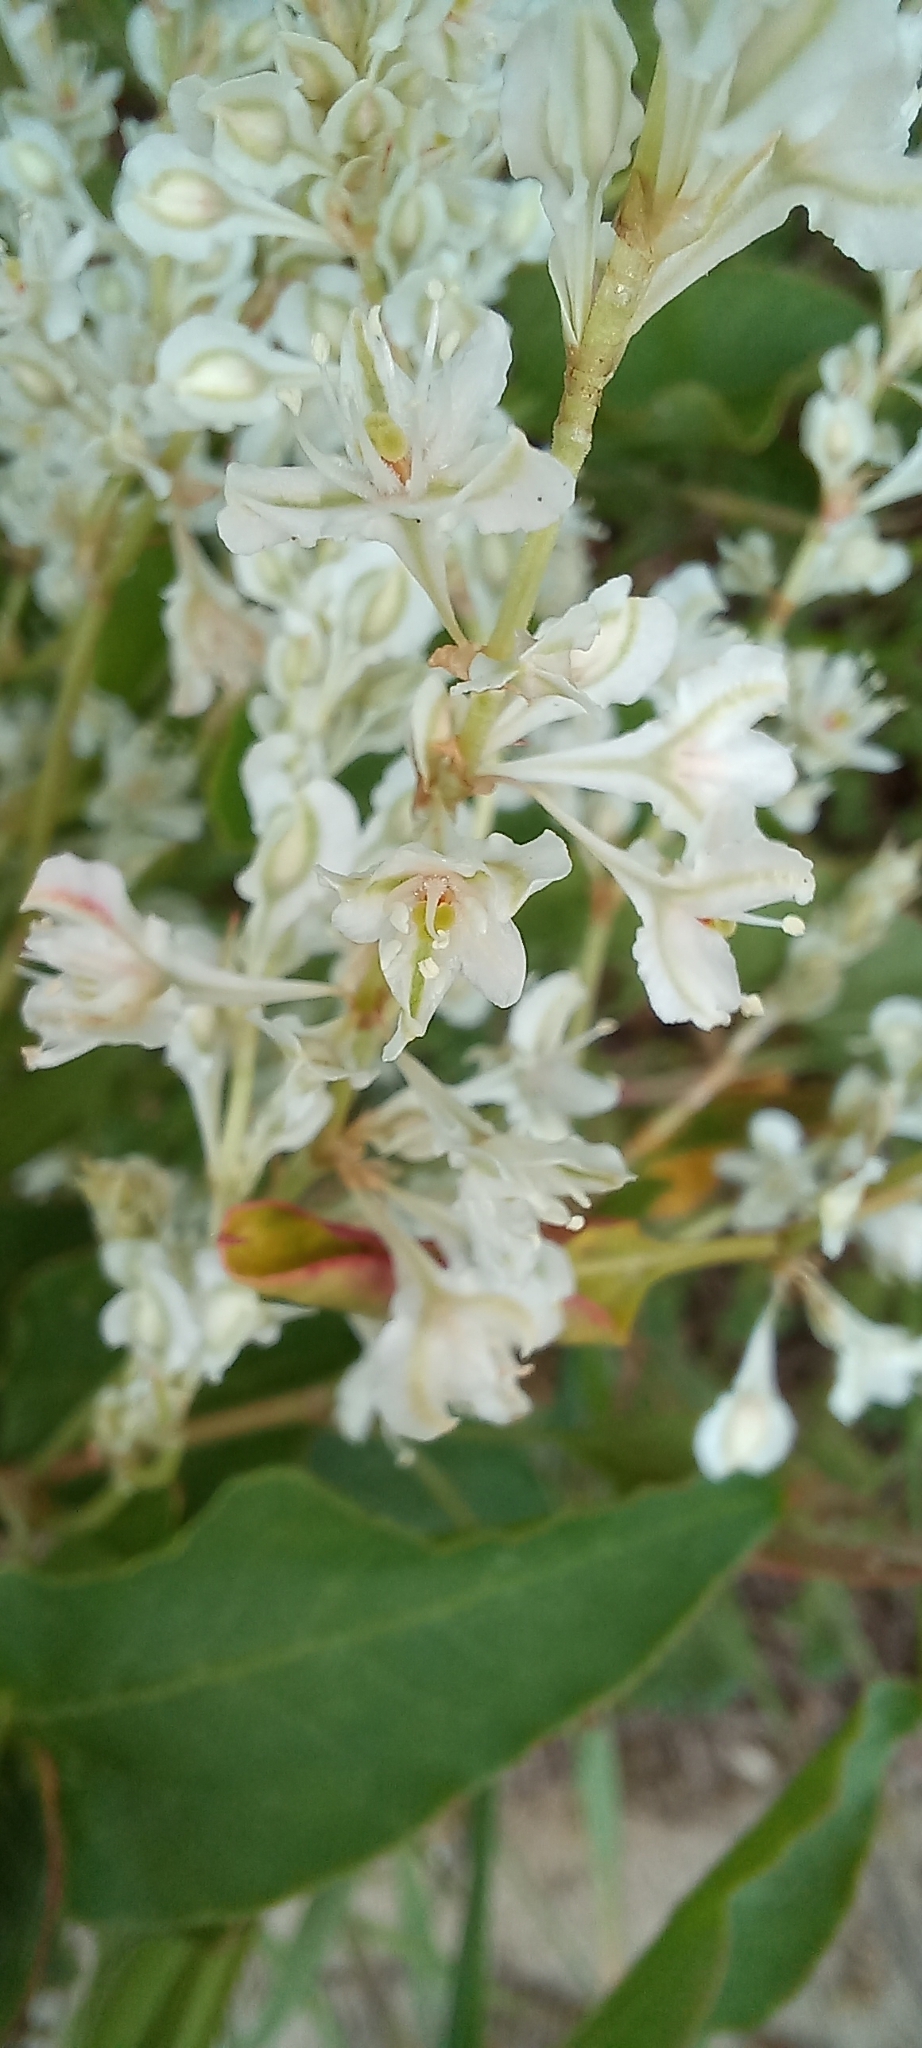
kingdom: Plantae
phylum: Tracheophyta
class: Magnoliopsida
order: Caryophyllales
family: Polygonaceae
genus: Fallopia
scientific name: Fallopia baldschuanica
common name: Russian-vine
